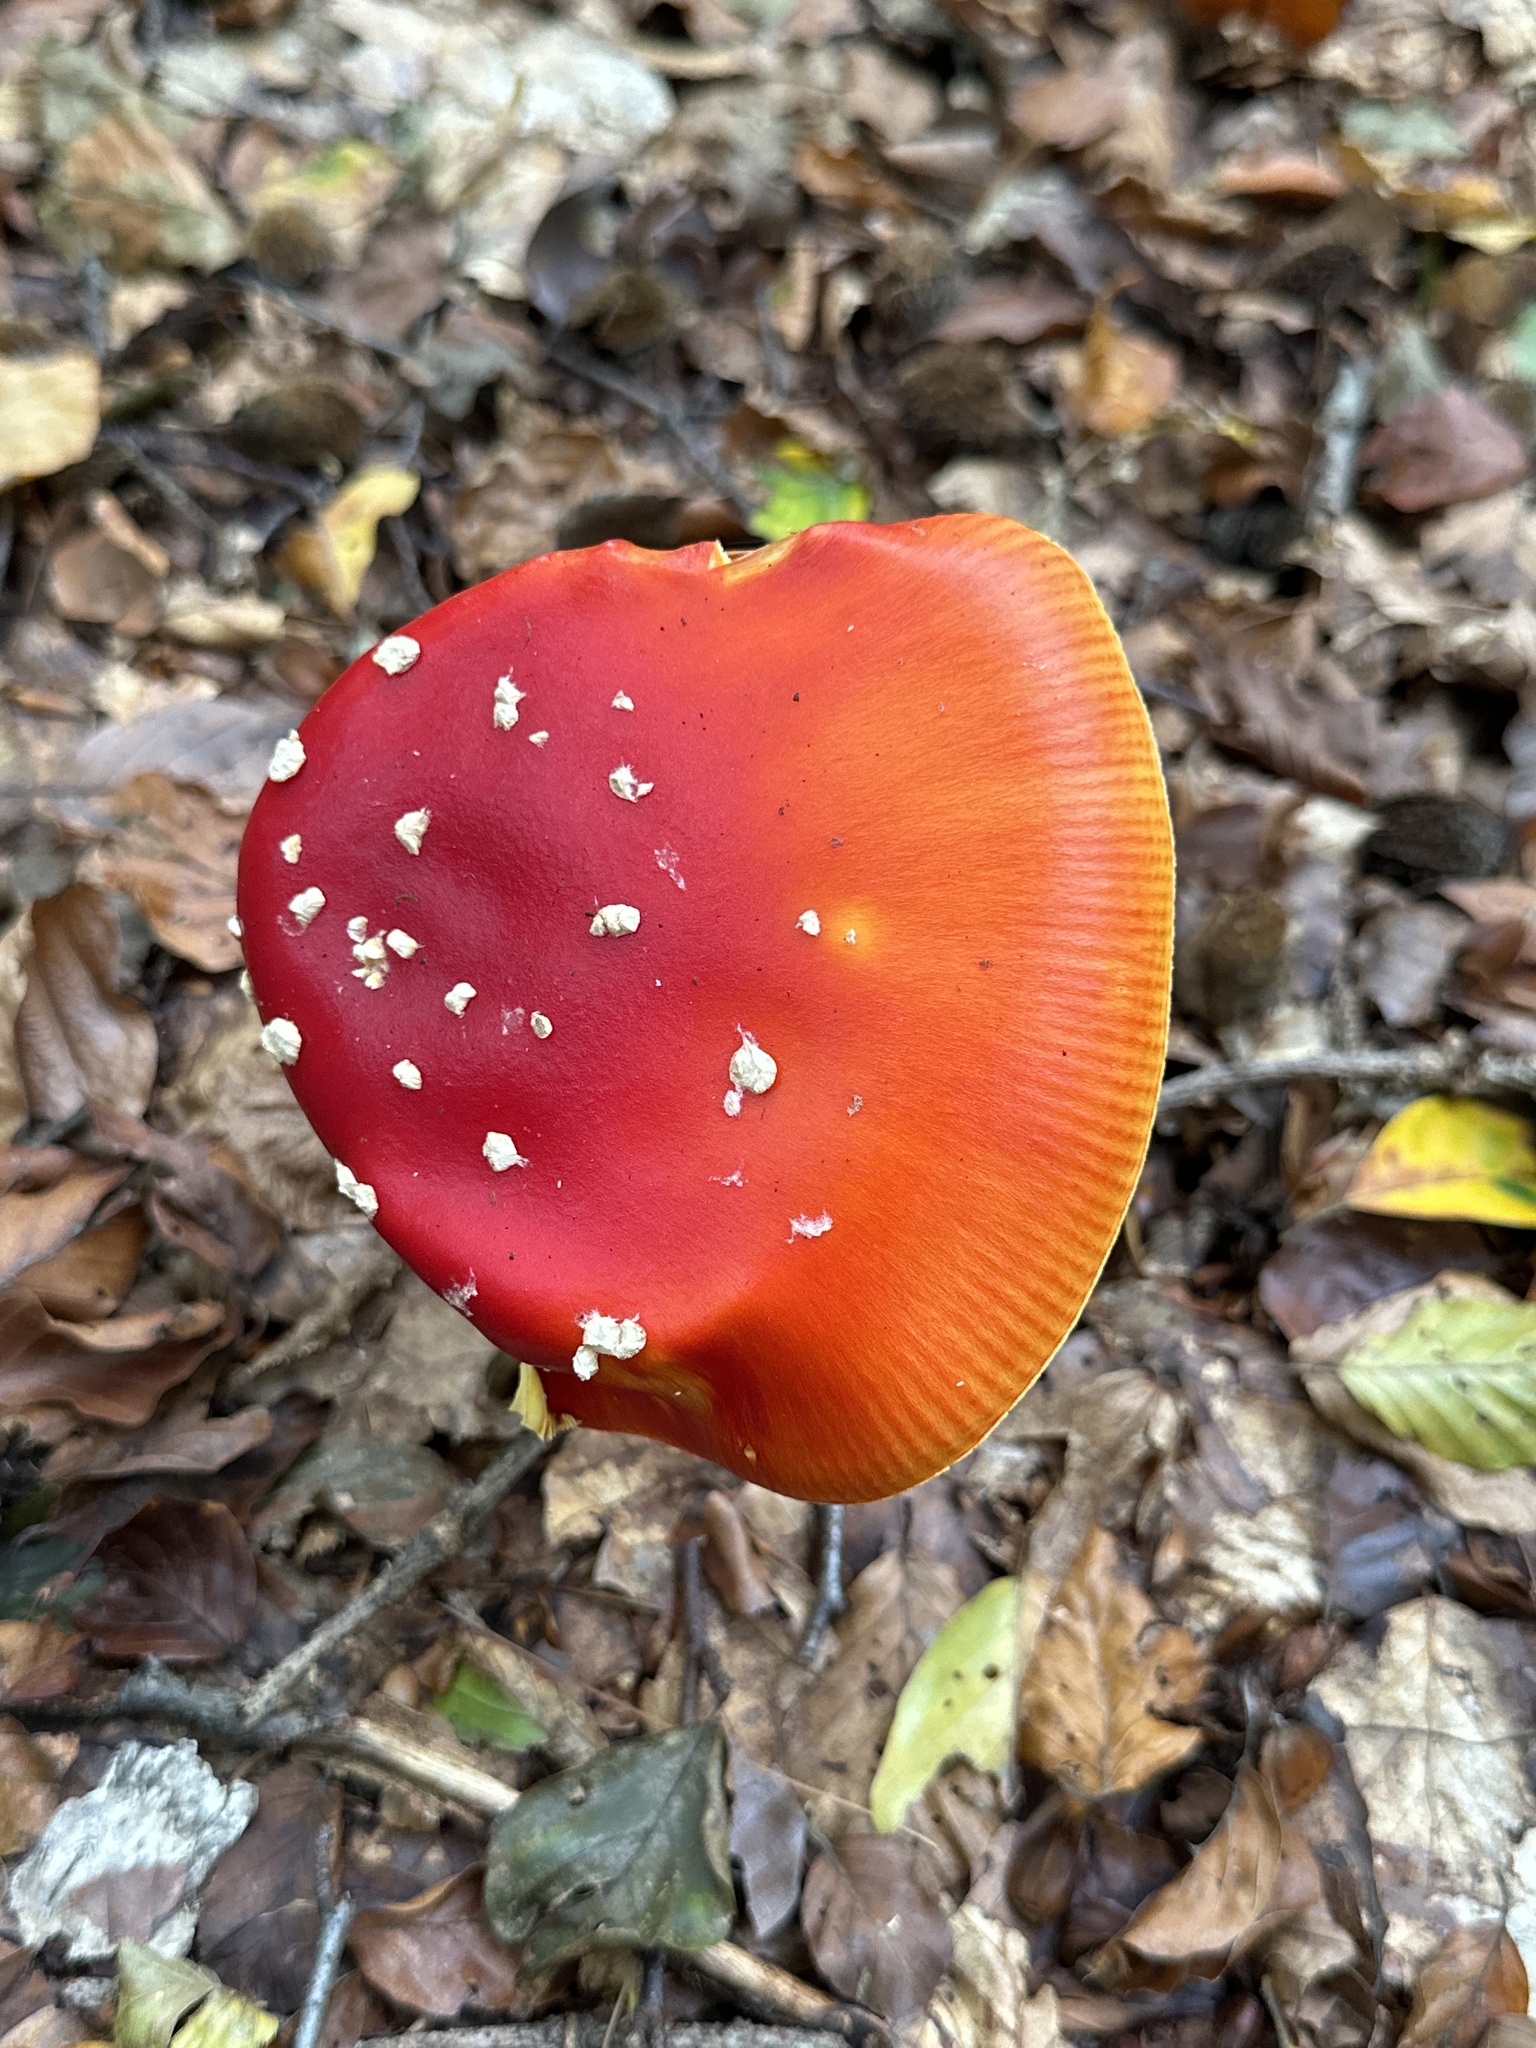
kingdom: Fungi
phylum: Basidiomycota
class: Agaricomycetes
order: Agaricales
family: Amanitaceae
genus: Amanita
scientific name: Amanita muscaria
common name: Fly agaric
